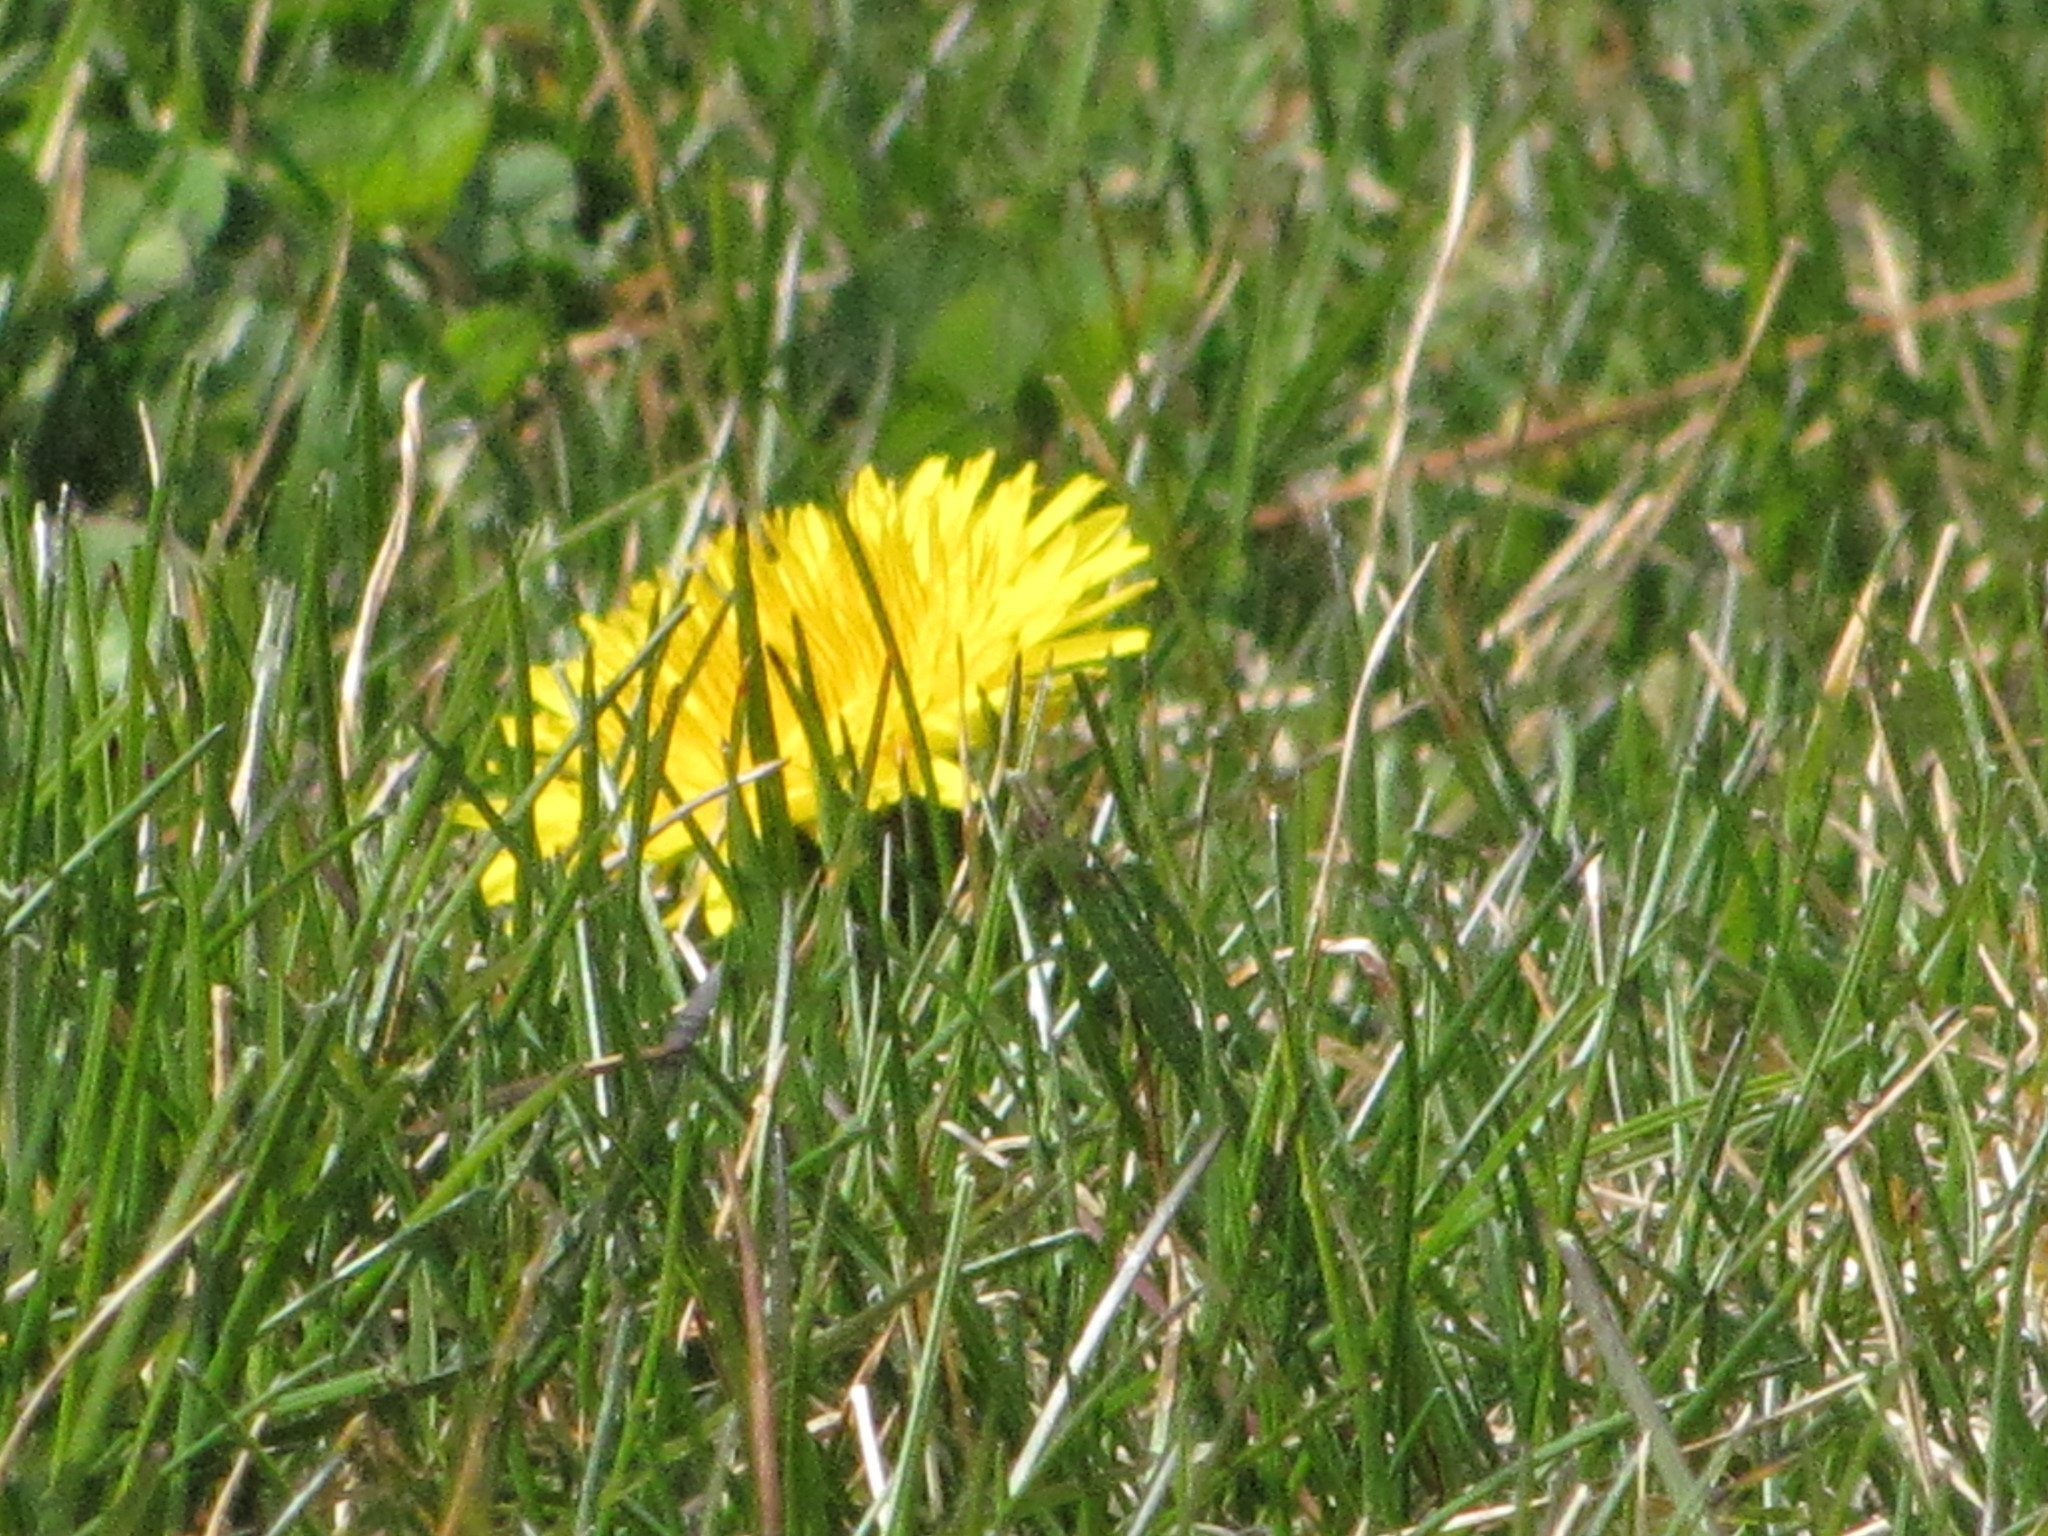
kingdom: Plantae
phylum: Tracheophyta
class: Magnoliopsida
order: Asterales
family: Asteraceae
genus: Taraxacum
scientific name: Taraxacum
